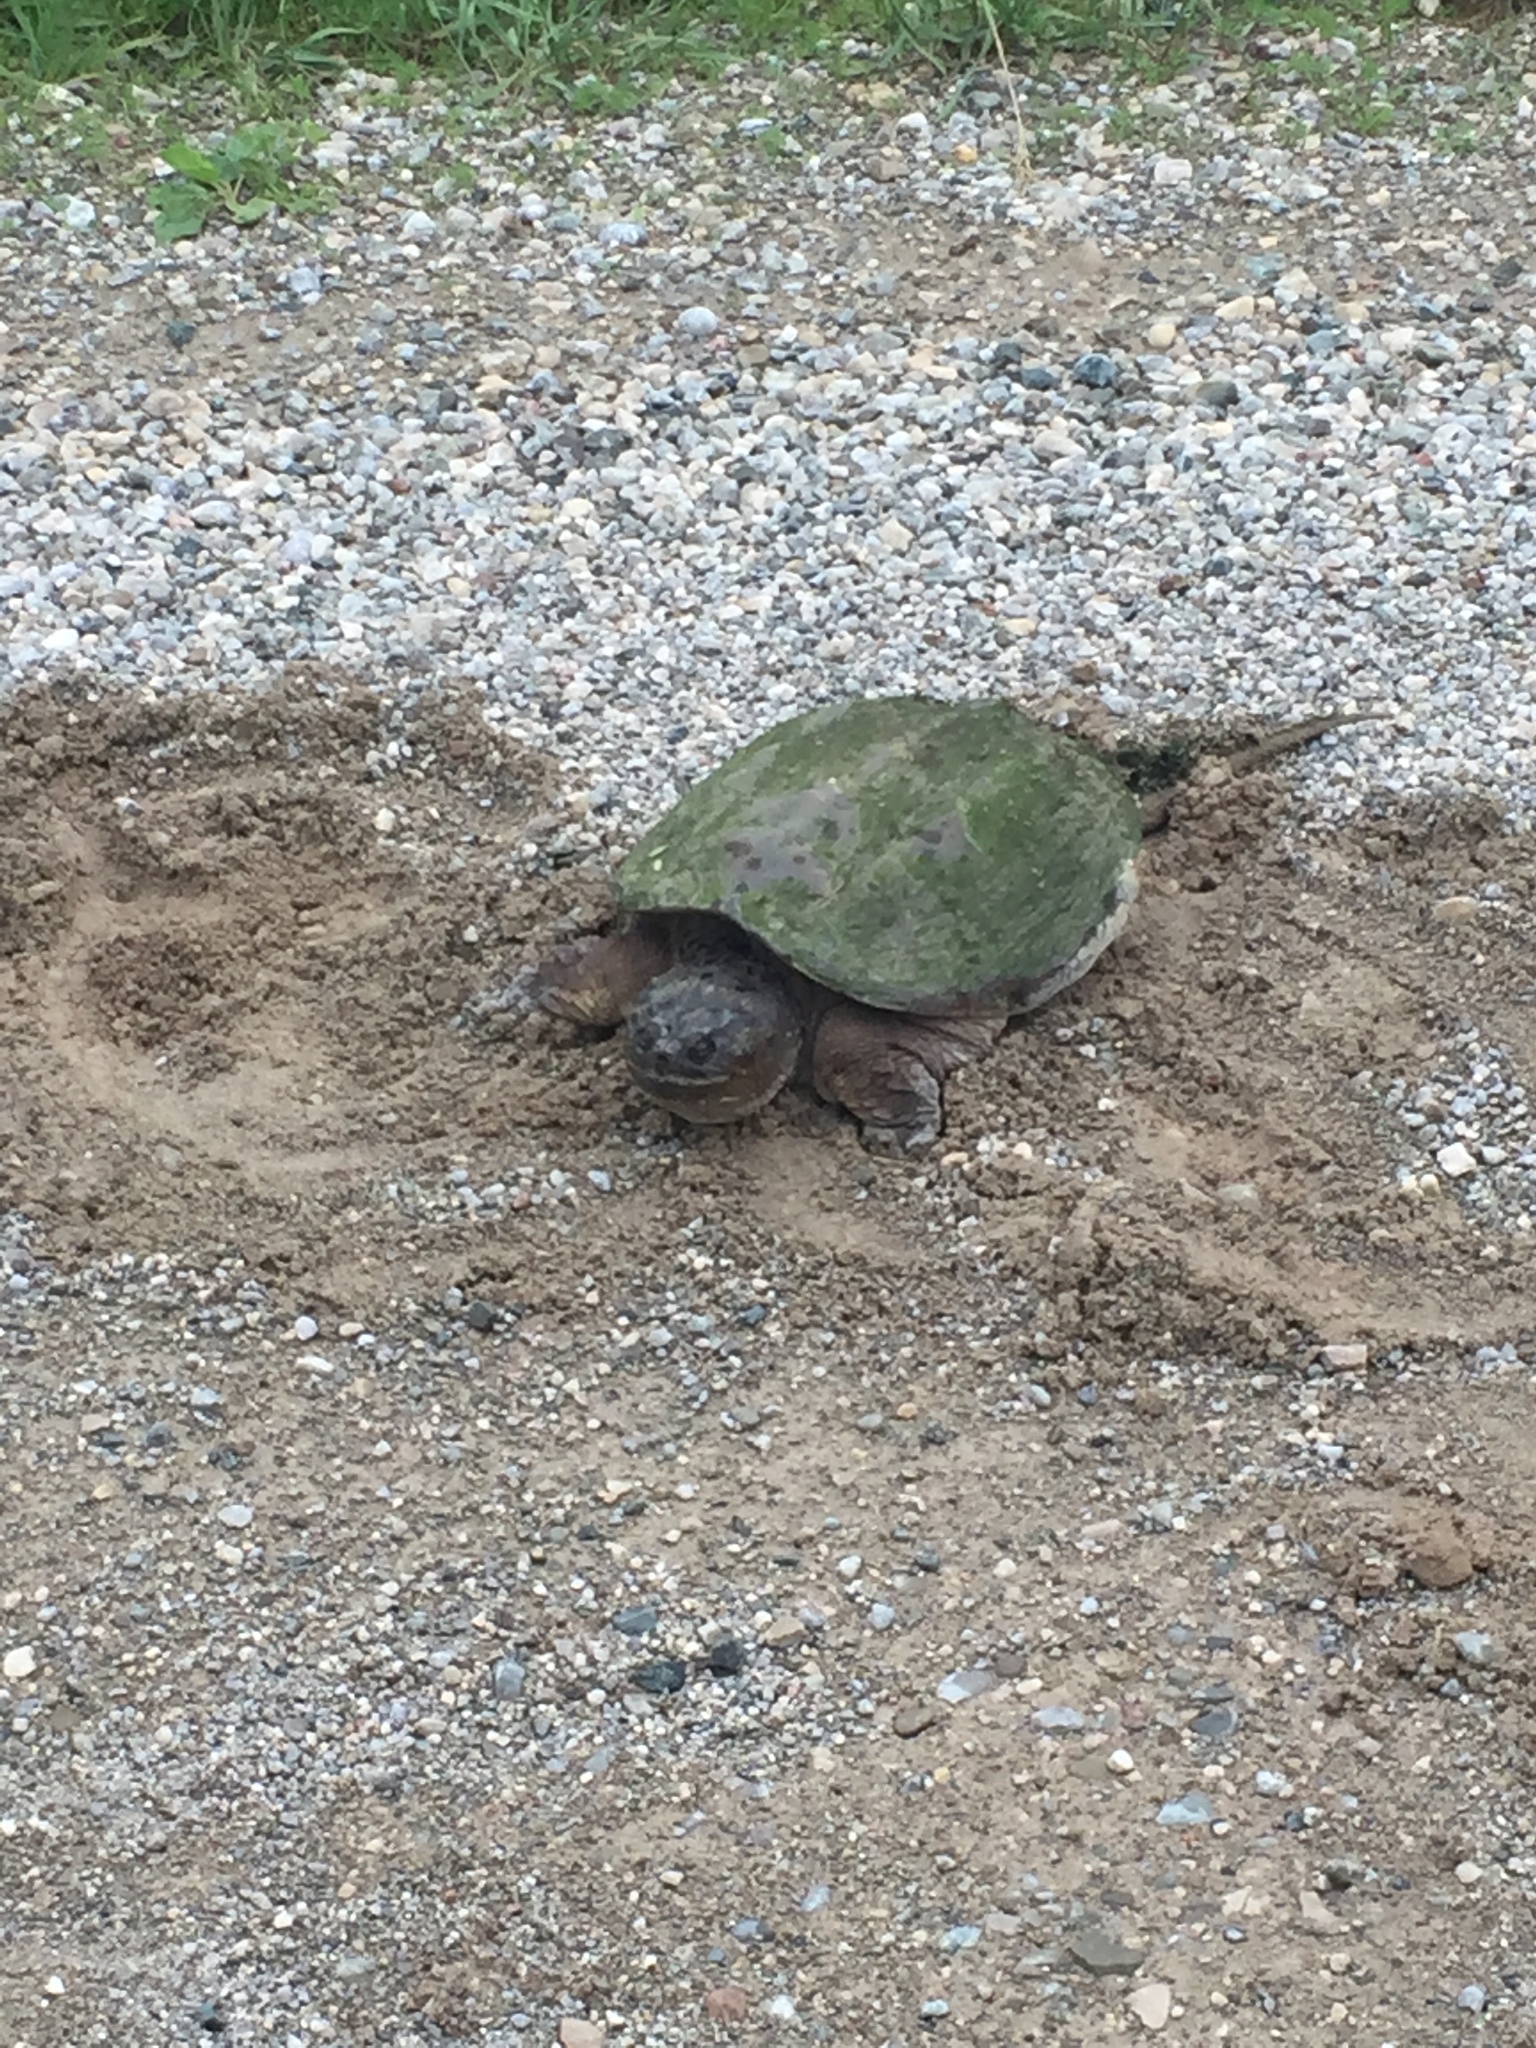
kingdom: Animalia
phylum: Chordata
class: Testudines
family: Chelydridae
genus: Chelydra
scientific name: Chelydra serpentina
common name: Common snapping turtle
